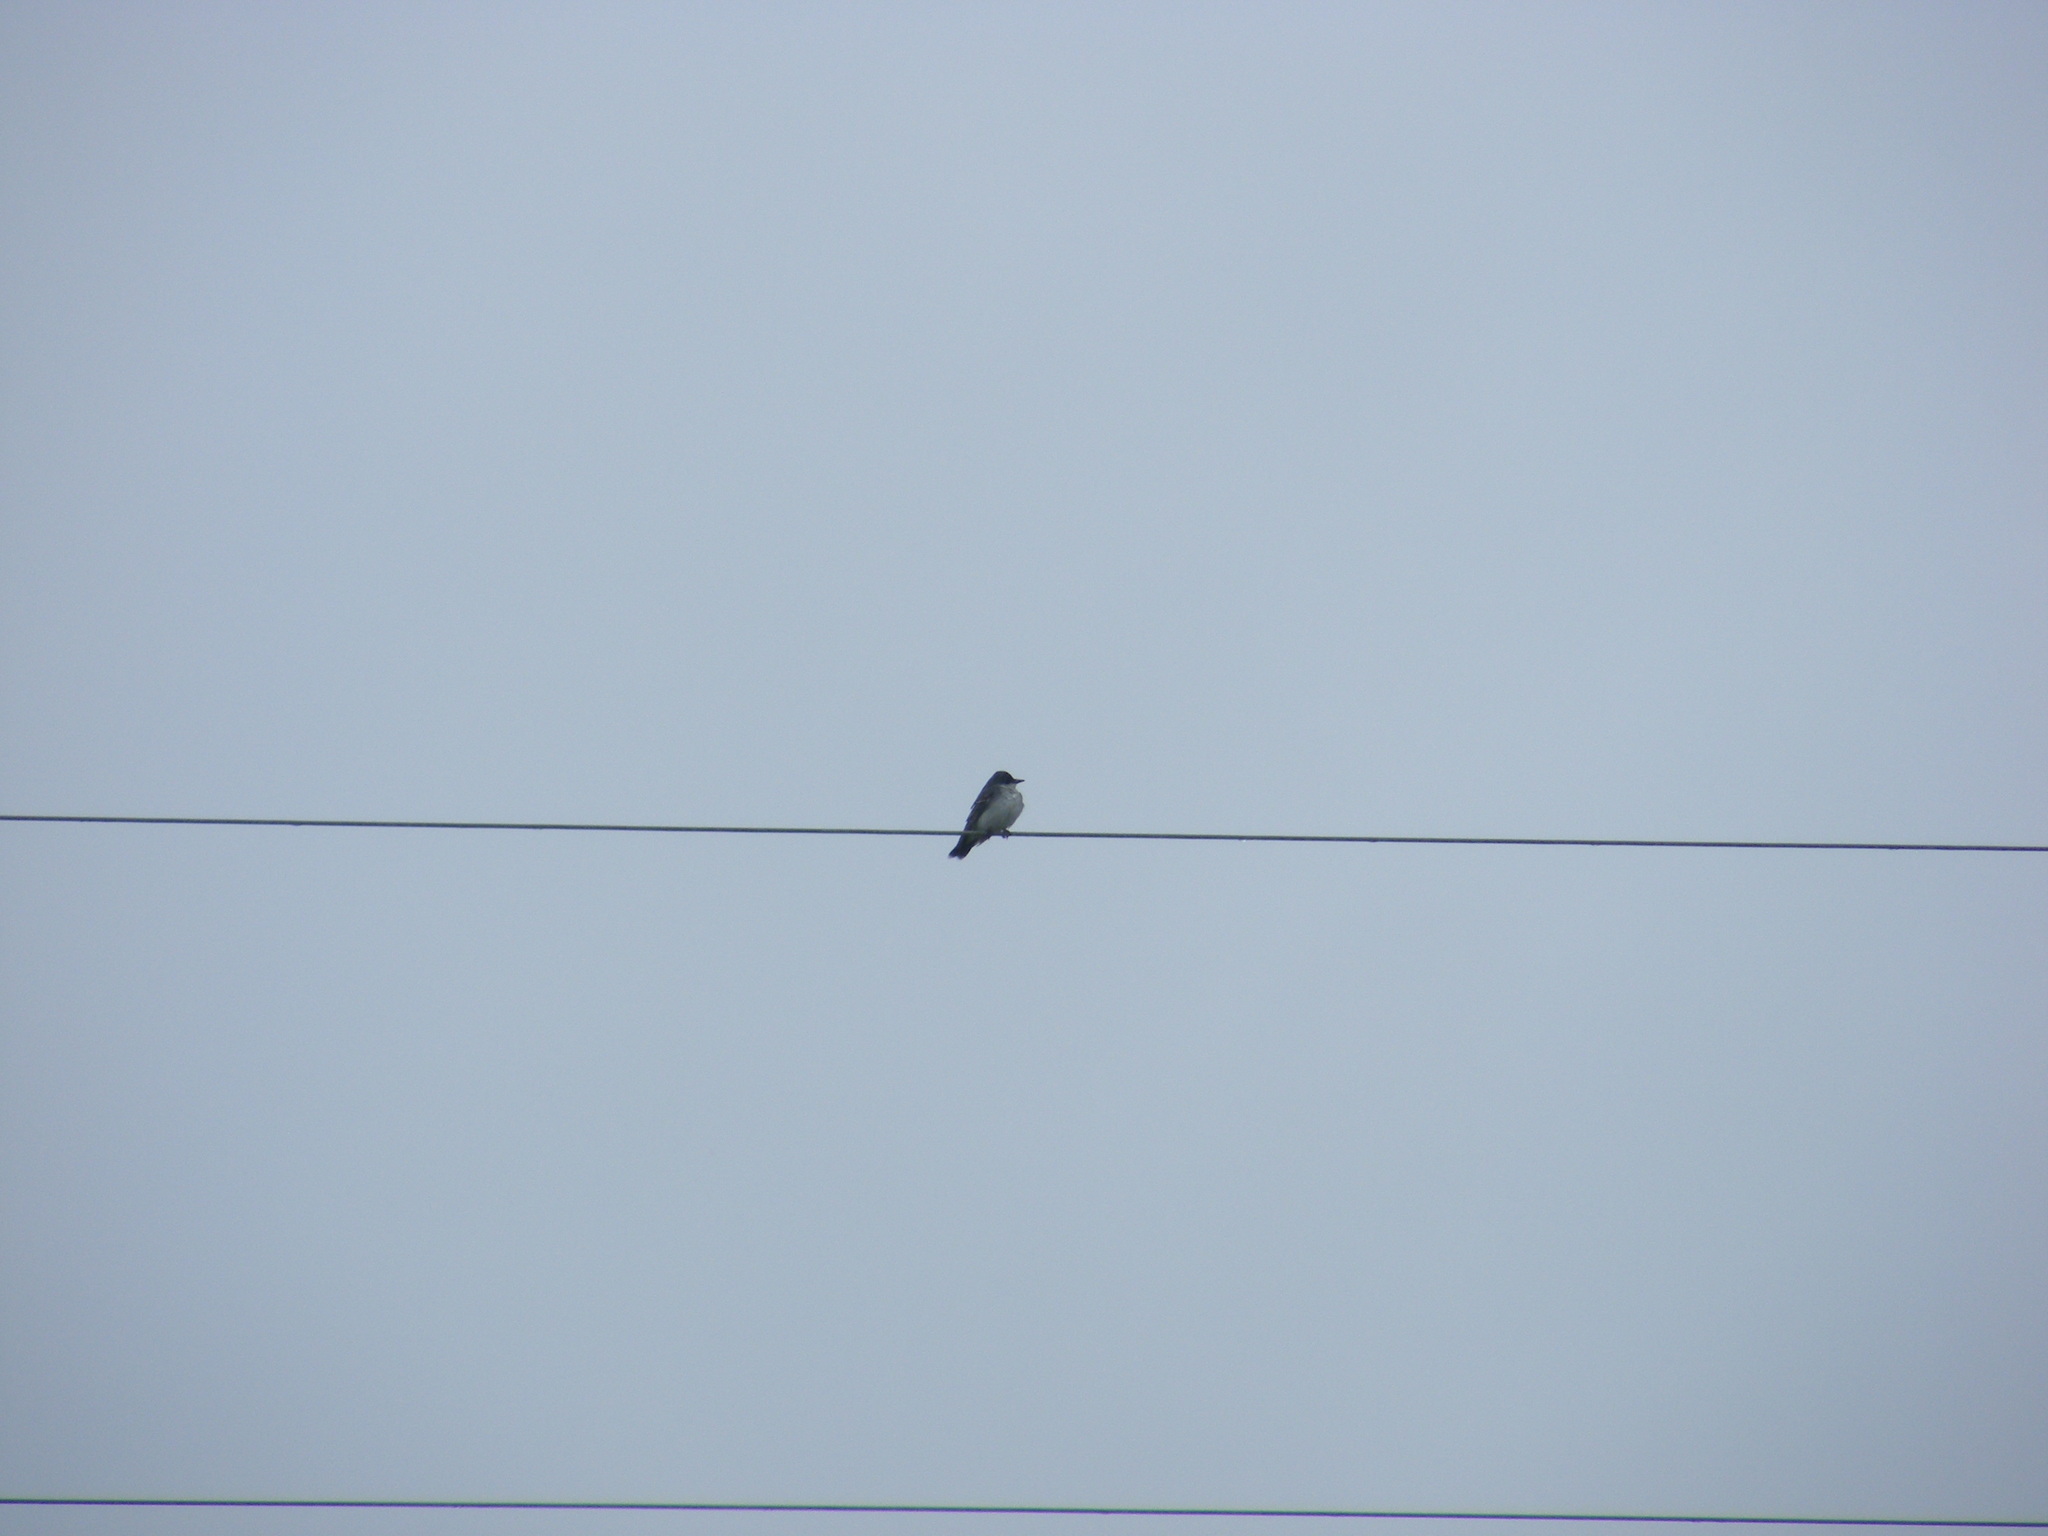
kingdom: Animalia
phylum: Chordata
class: Aves
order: Passeriformes
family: Tyrannidae
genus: Tyrannus
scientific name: Tyrannus tyrannus
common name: Eastern kingbird
